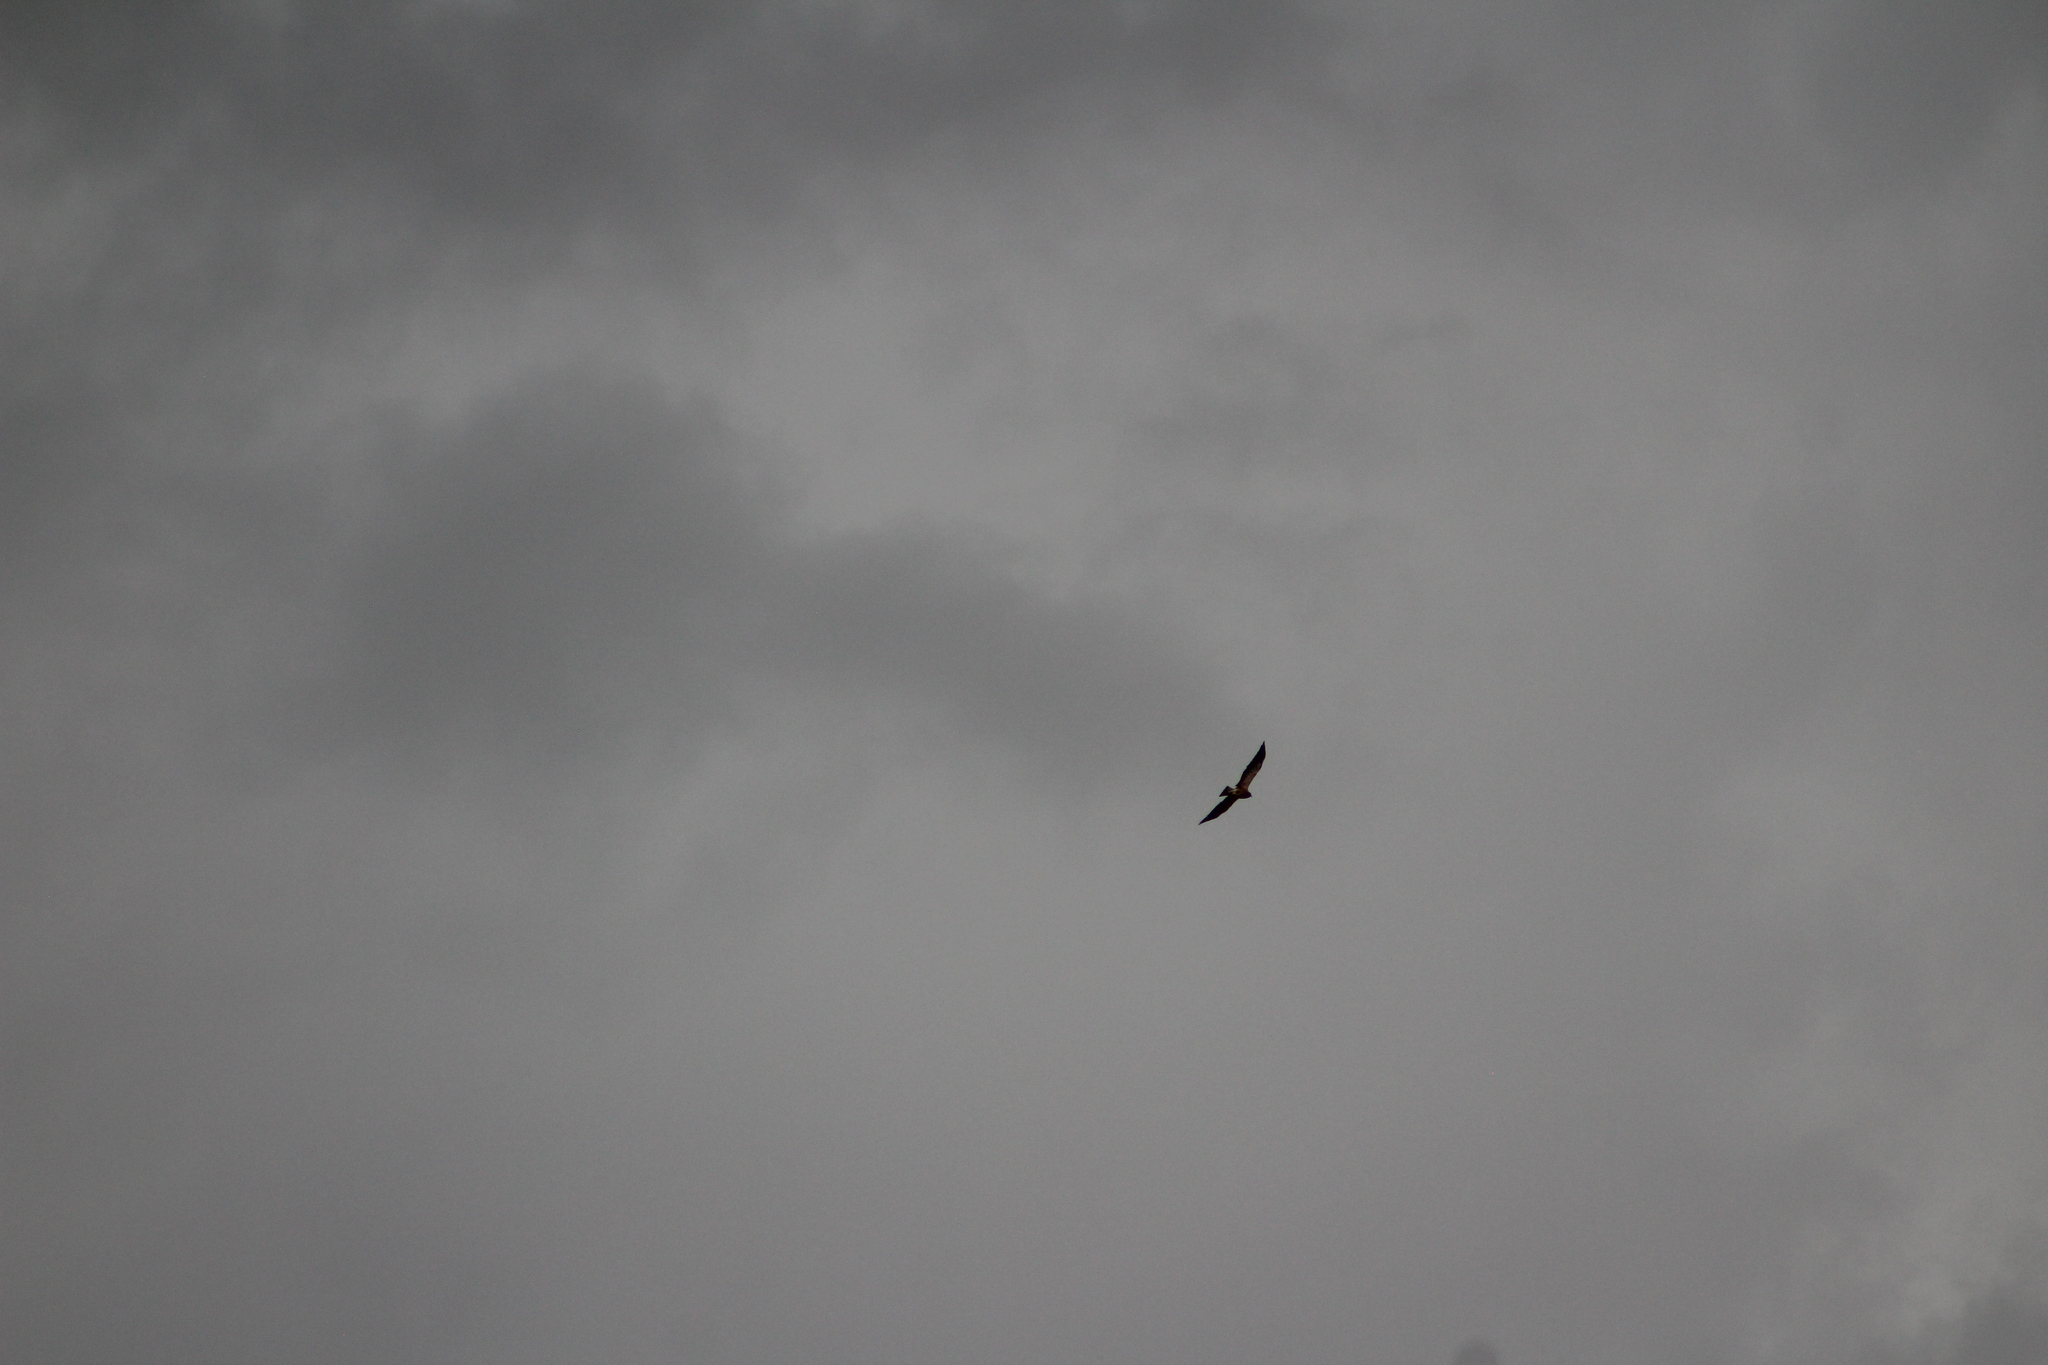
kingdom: Animalia
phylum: Chordata
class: Aves
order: Accipitriformes
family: Accipitridae
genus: Buteo
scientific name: Buteo swainsoni
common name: Swainson's hawk
